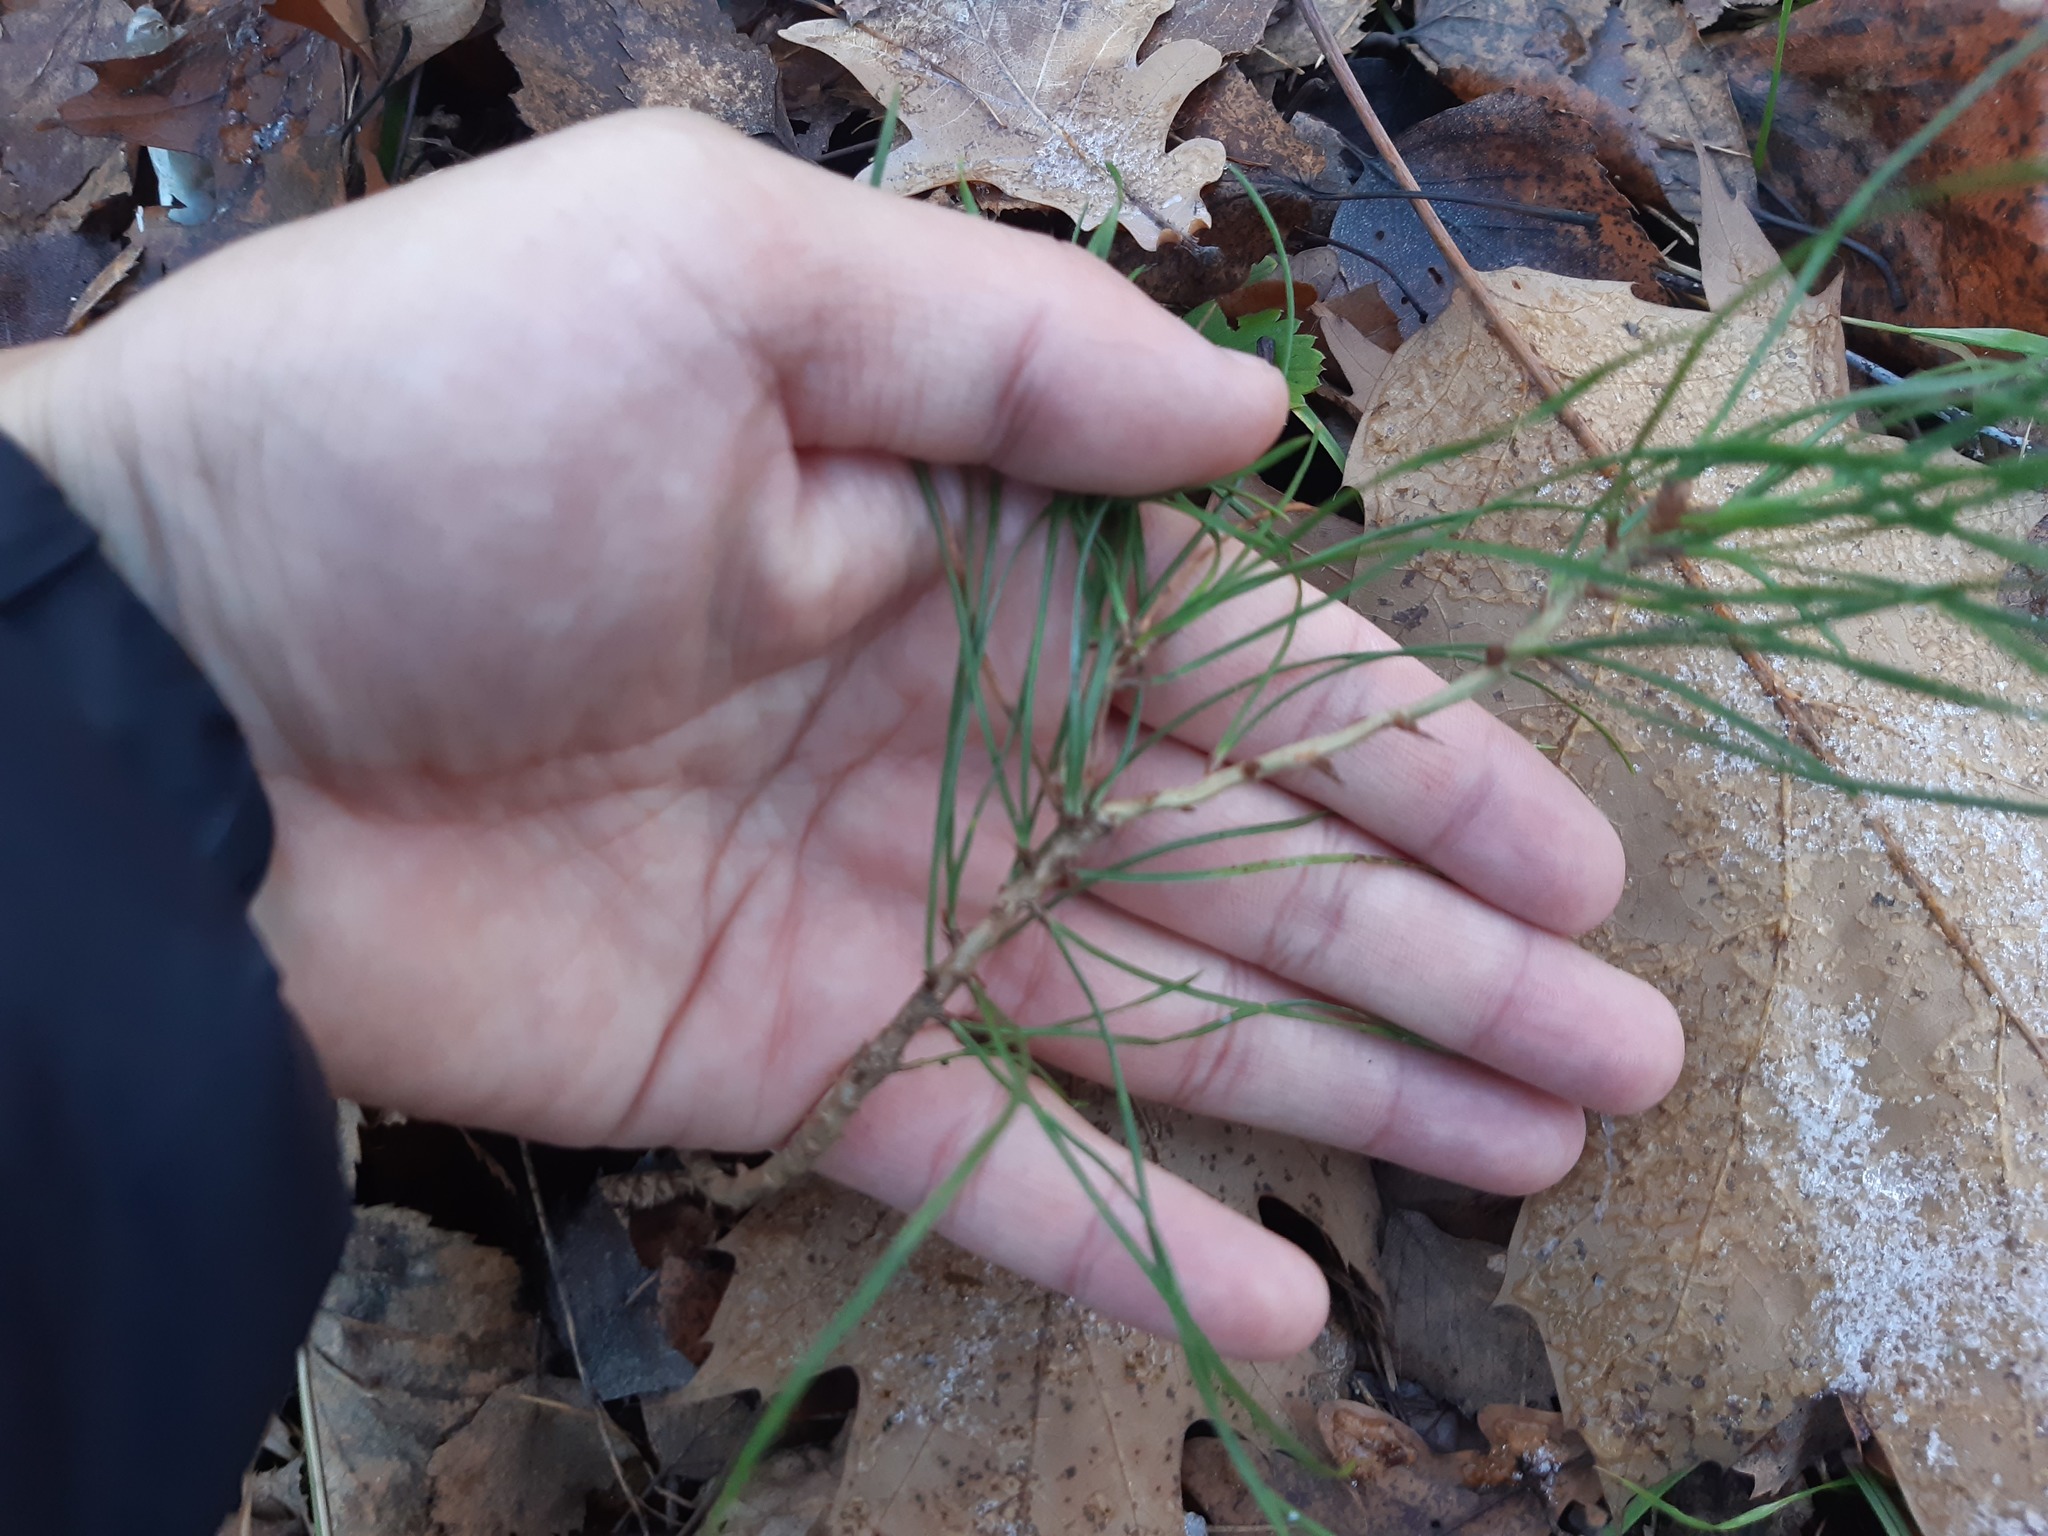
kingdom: Plantae
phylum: Tracheophyta
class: Pinopsida
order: Pinales
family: Pinaceae
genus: Pinus
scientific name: Pinus sylvestris
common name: Scots pine
